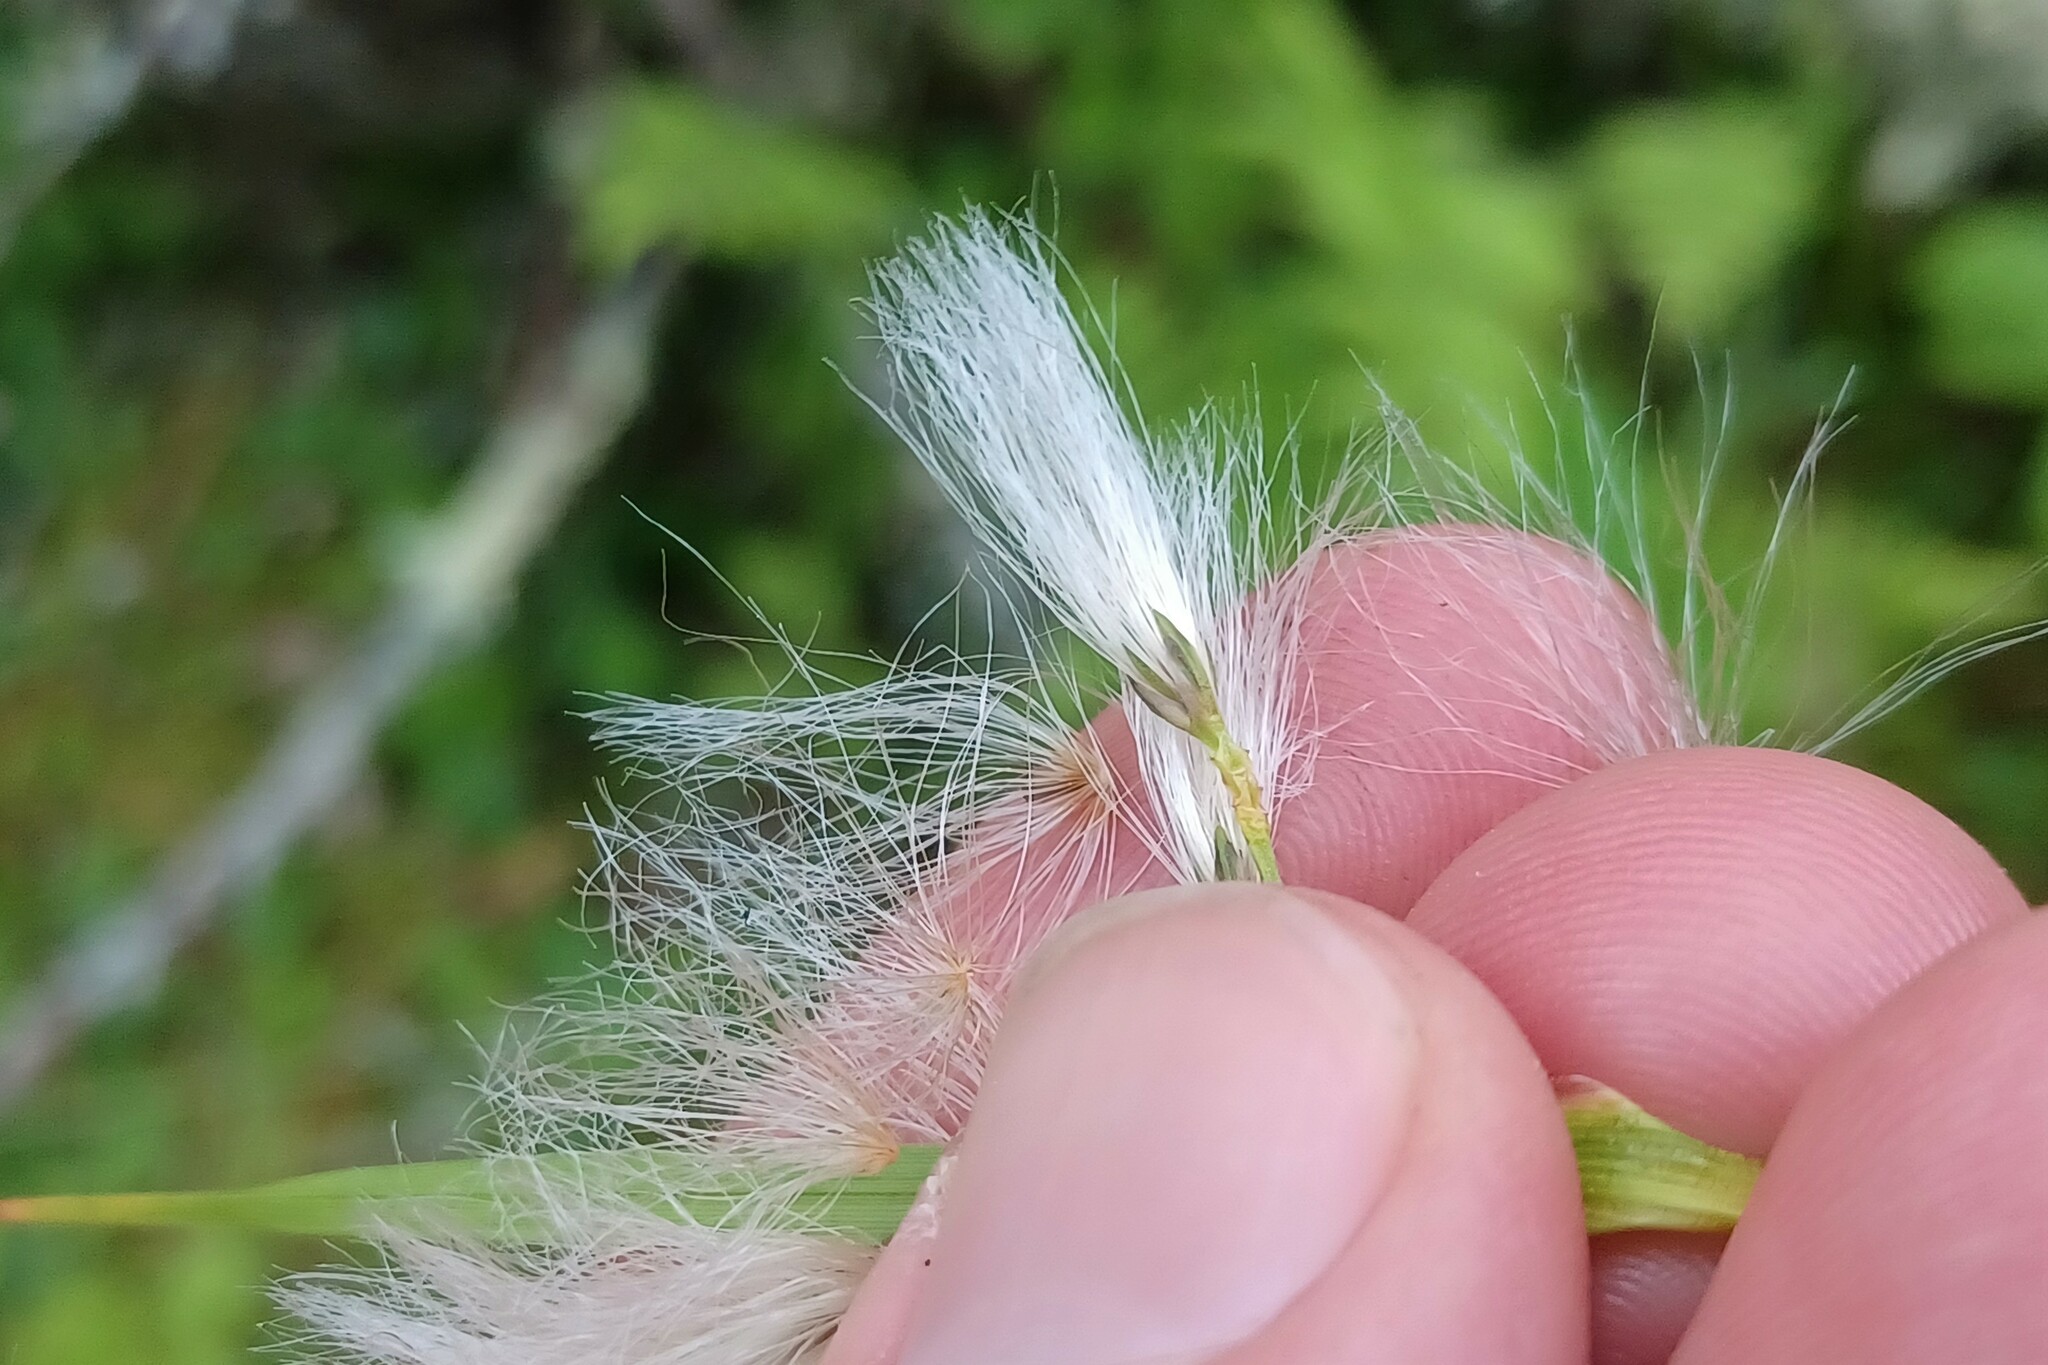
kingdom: Plantae
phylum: Tracheophyta
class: Liliopsida
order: Poales
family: Cyperaceae
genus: Eriophorum
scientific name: Eriophorum viridicarinatum
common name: Green-keeled cottongrass
